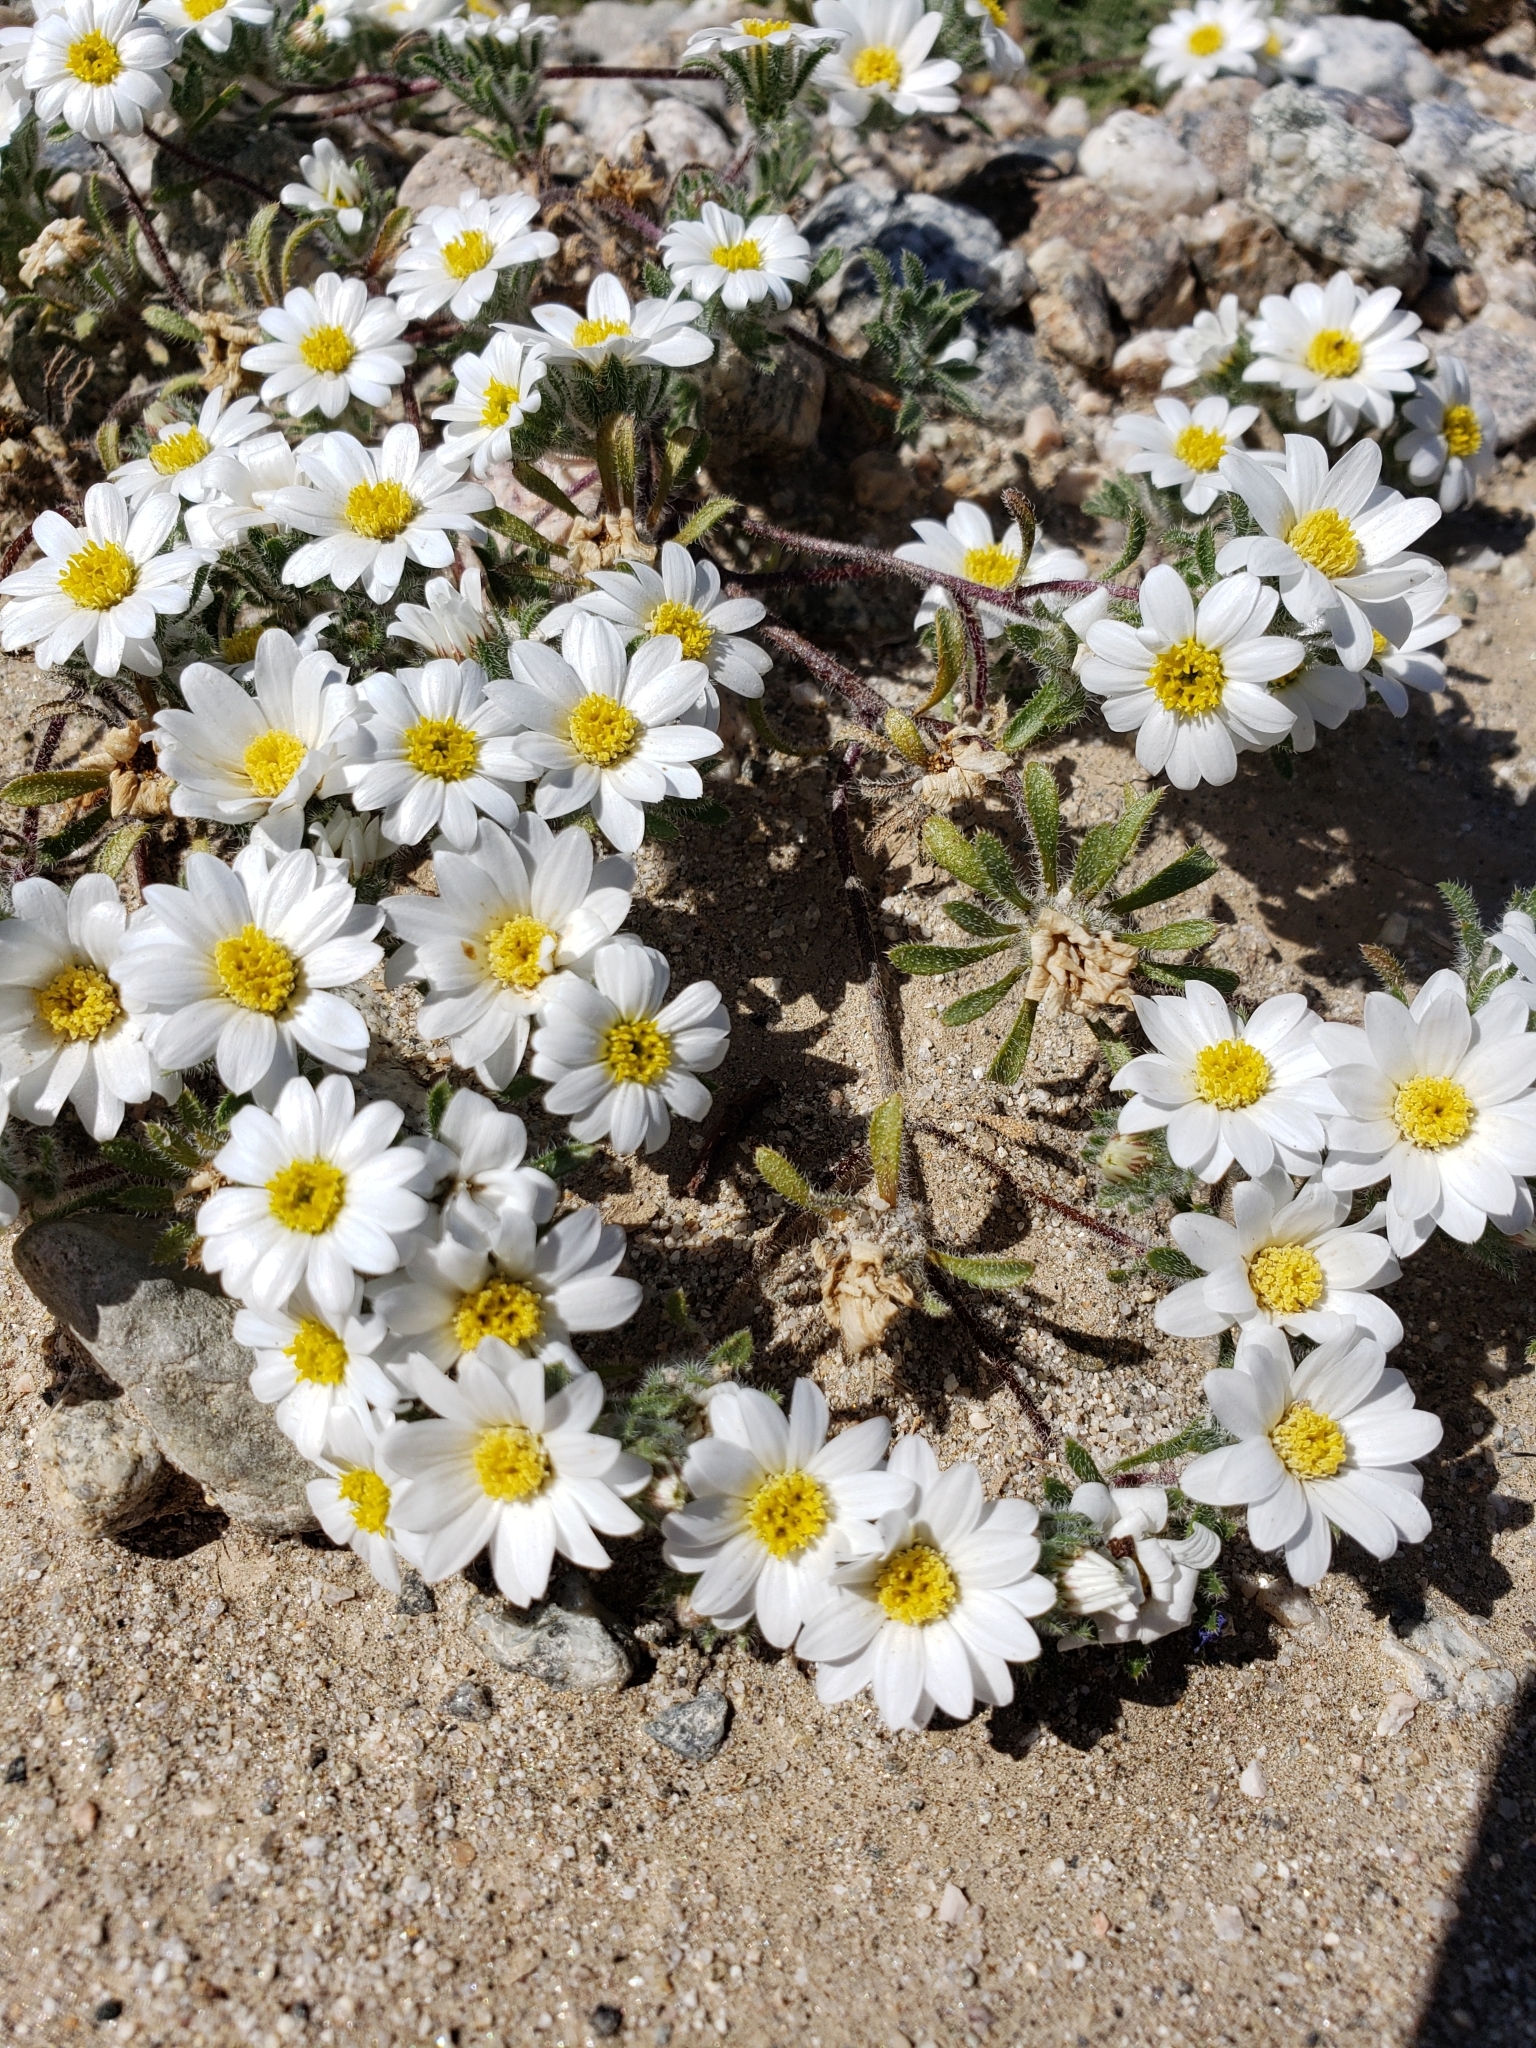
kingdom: Plantae
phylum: Tracheophyta
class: Magnoliopsida
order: Asterales
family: Asteraceae
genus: Monoptilon
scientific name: Monoptilon bellioides
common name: Bristly desertstar
